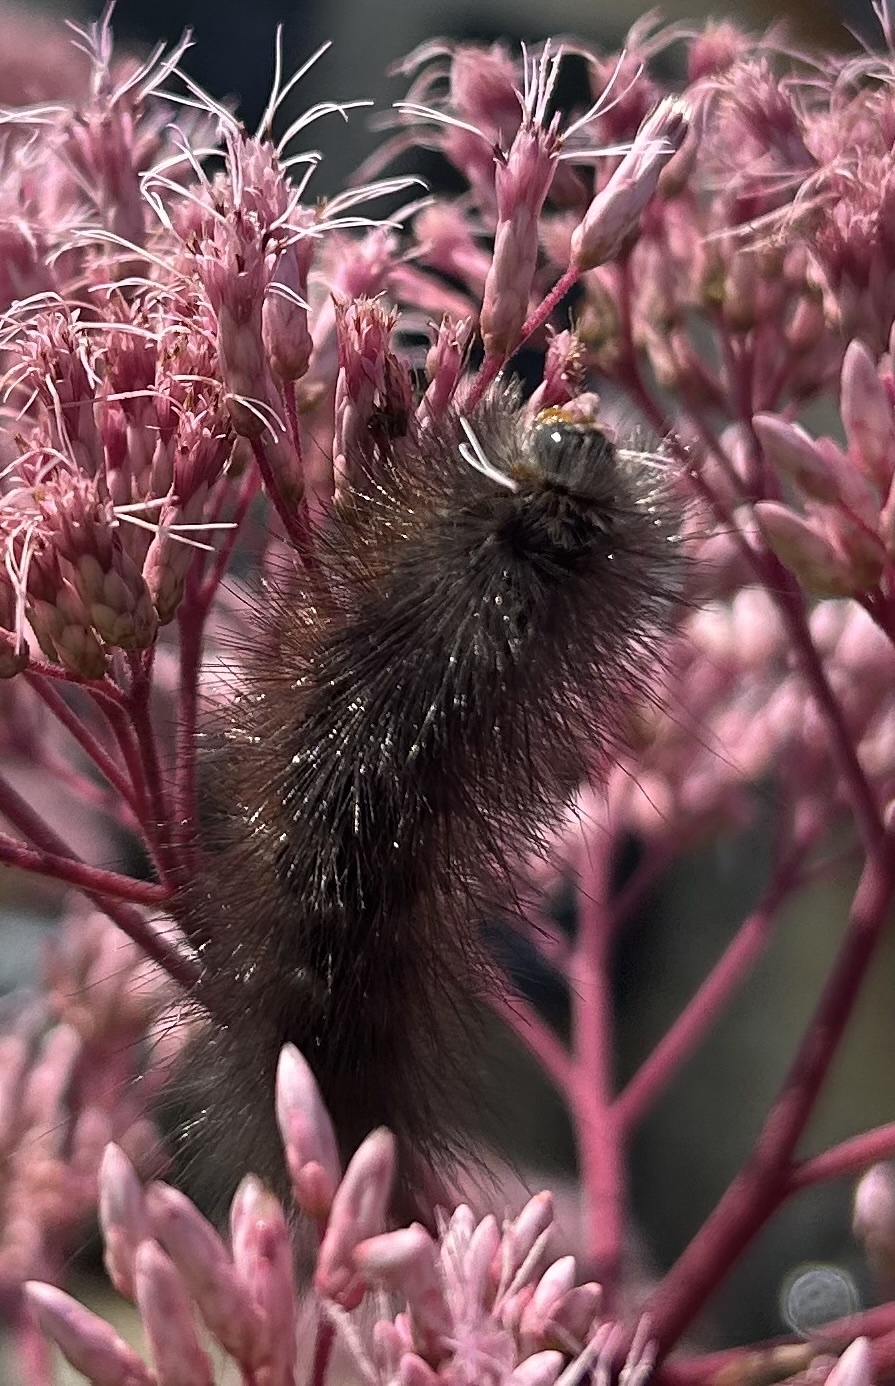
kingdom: Animalia
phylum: Arthropoda
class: Insecta
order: Lepidoptera
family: Erebidae
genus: Estigmene
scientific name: Estigmene acrea
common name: Salt marsh moth
